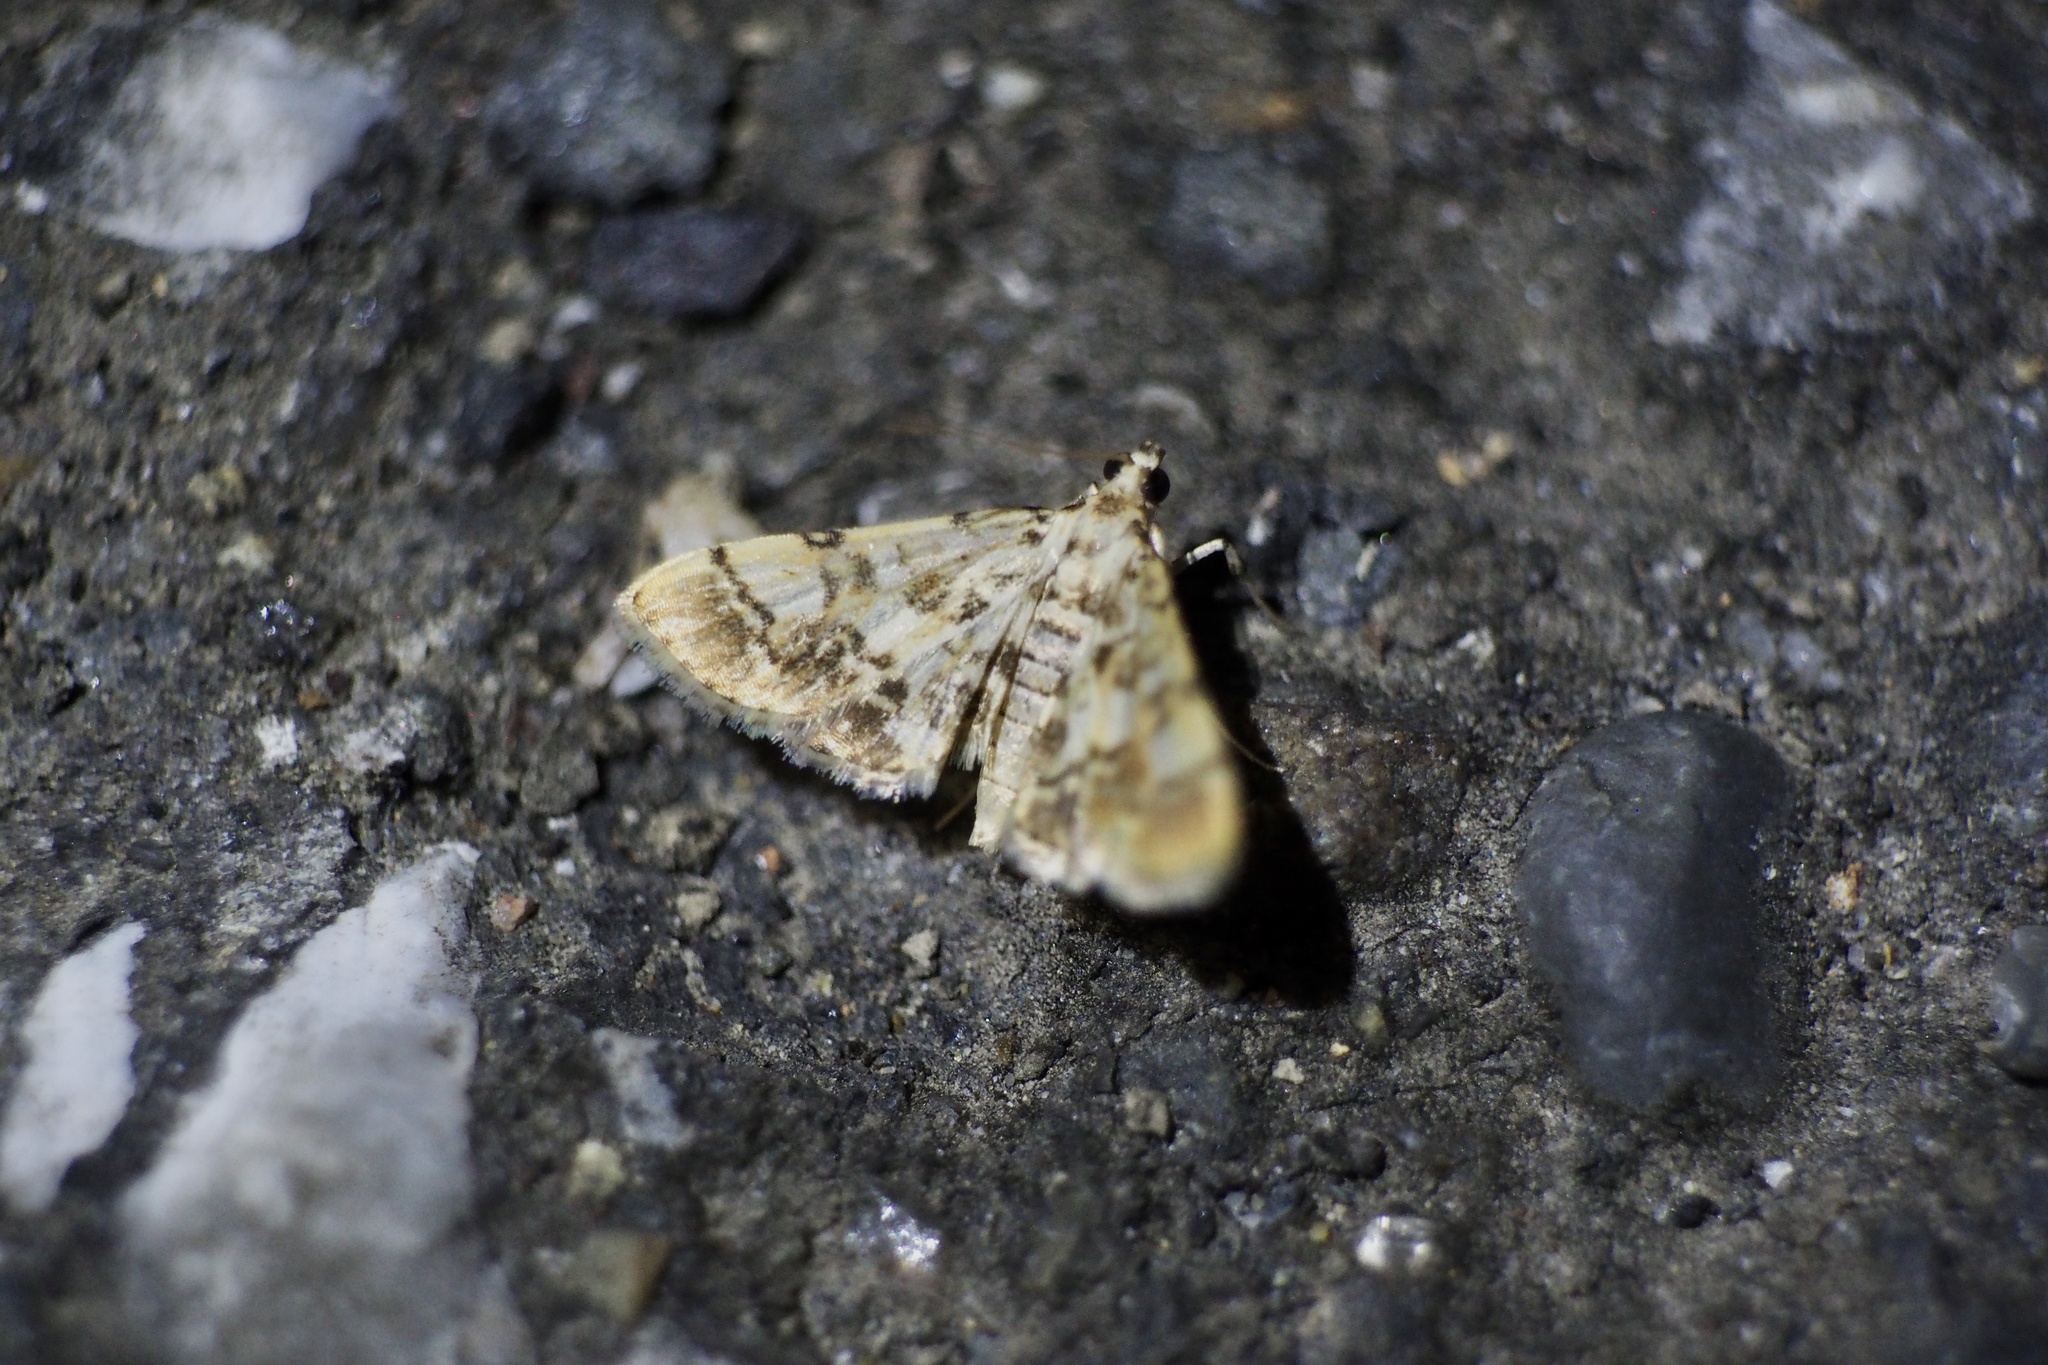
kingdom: Animalia
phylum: Arthropoda
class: Insecta
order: Lepidoptera
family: Crambidae
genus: Lamprosema
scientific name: Lamprosema commixta
